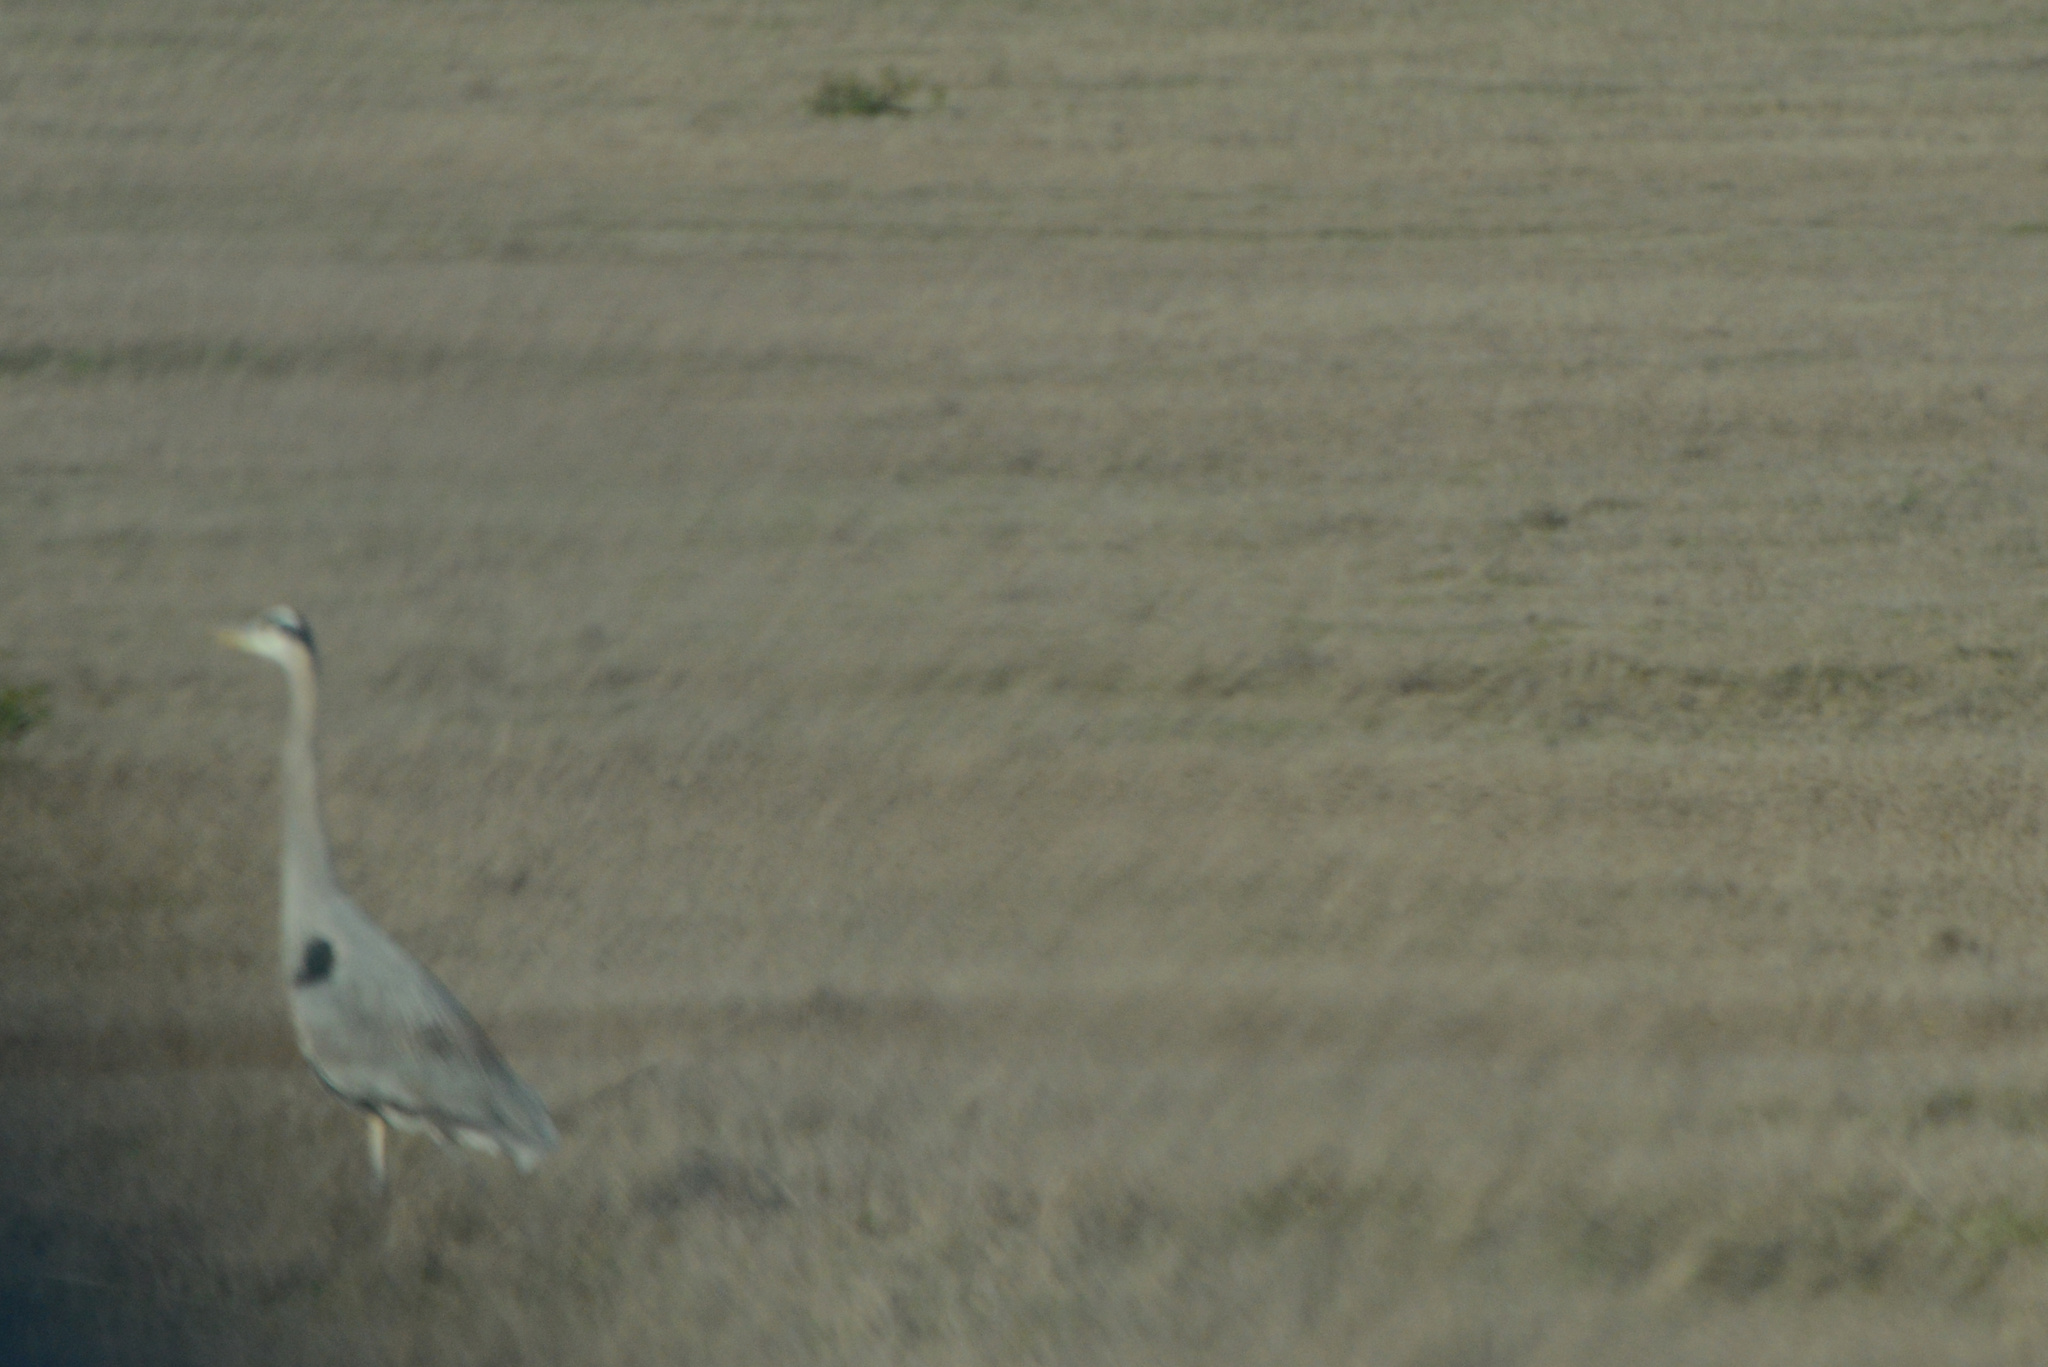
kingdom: Animalia
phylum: Chordata
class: Aves
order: Pelecaniformes
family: Ardeidae
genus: Ardea
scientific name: Ardea herodias
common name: Great blue heron
